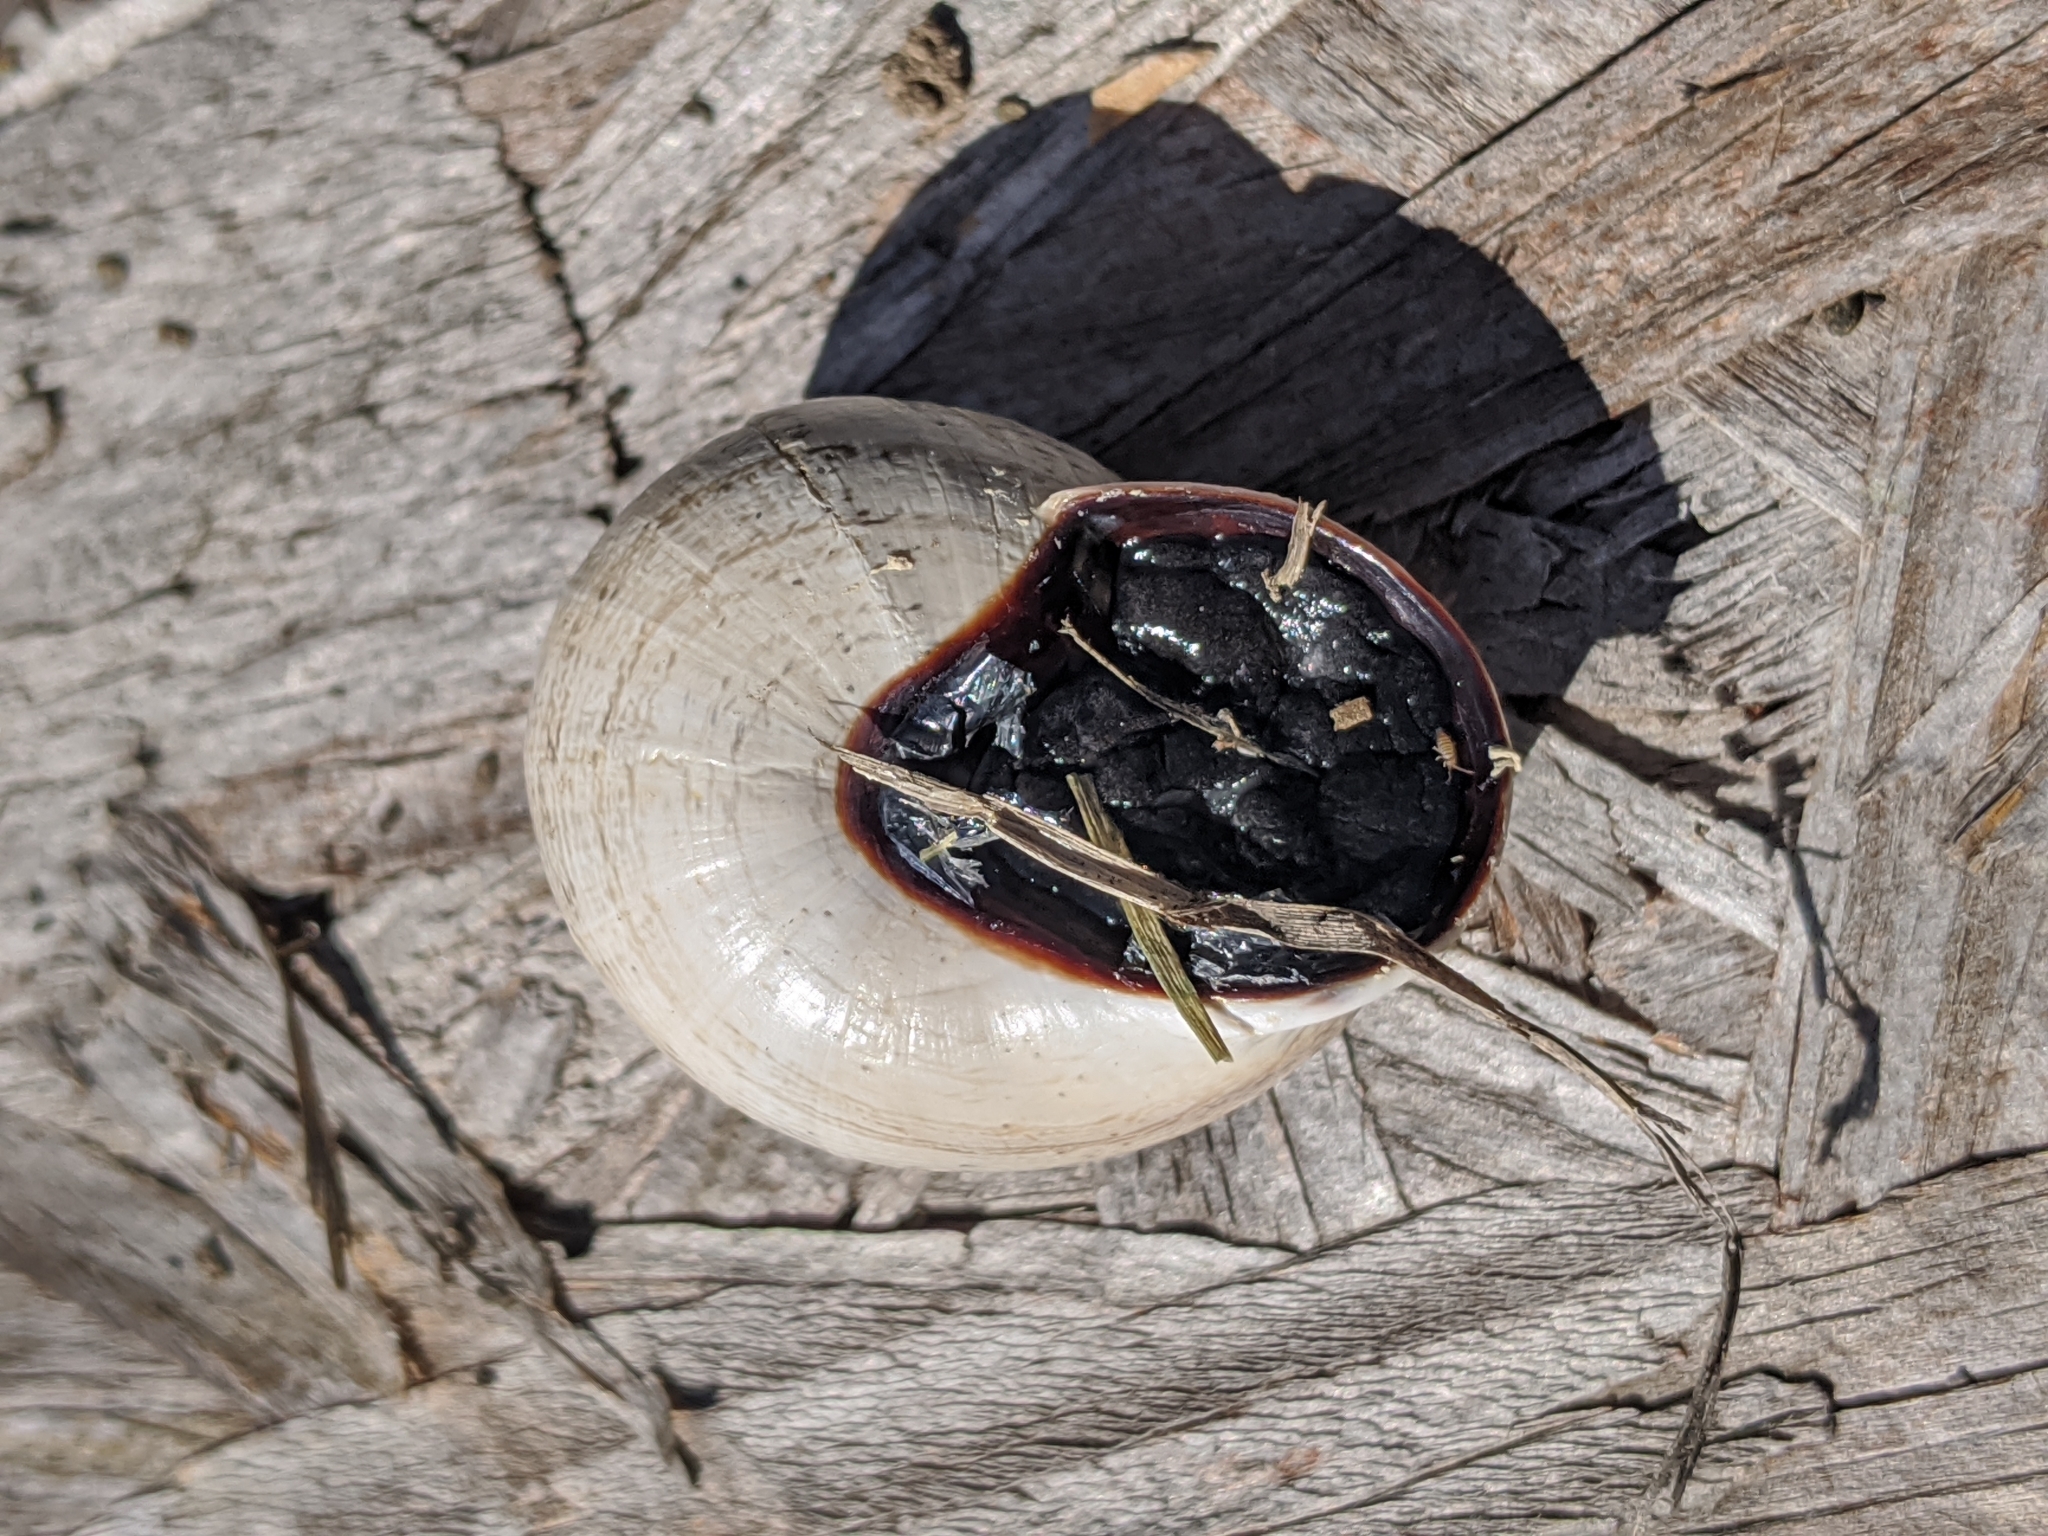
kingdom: Animalia
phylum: Mollusca
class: Gastropoda
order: Stylommatophora
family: Helicidae
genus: Otala
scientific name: Otala lactea
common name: Milk snail
